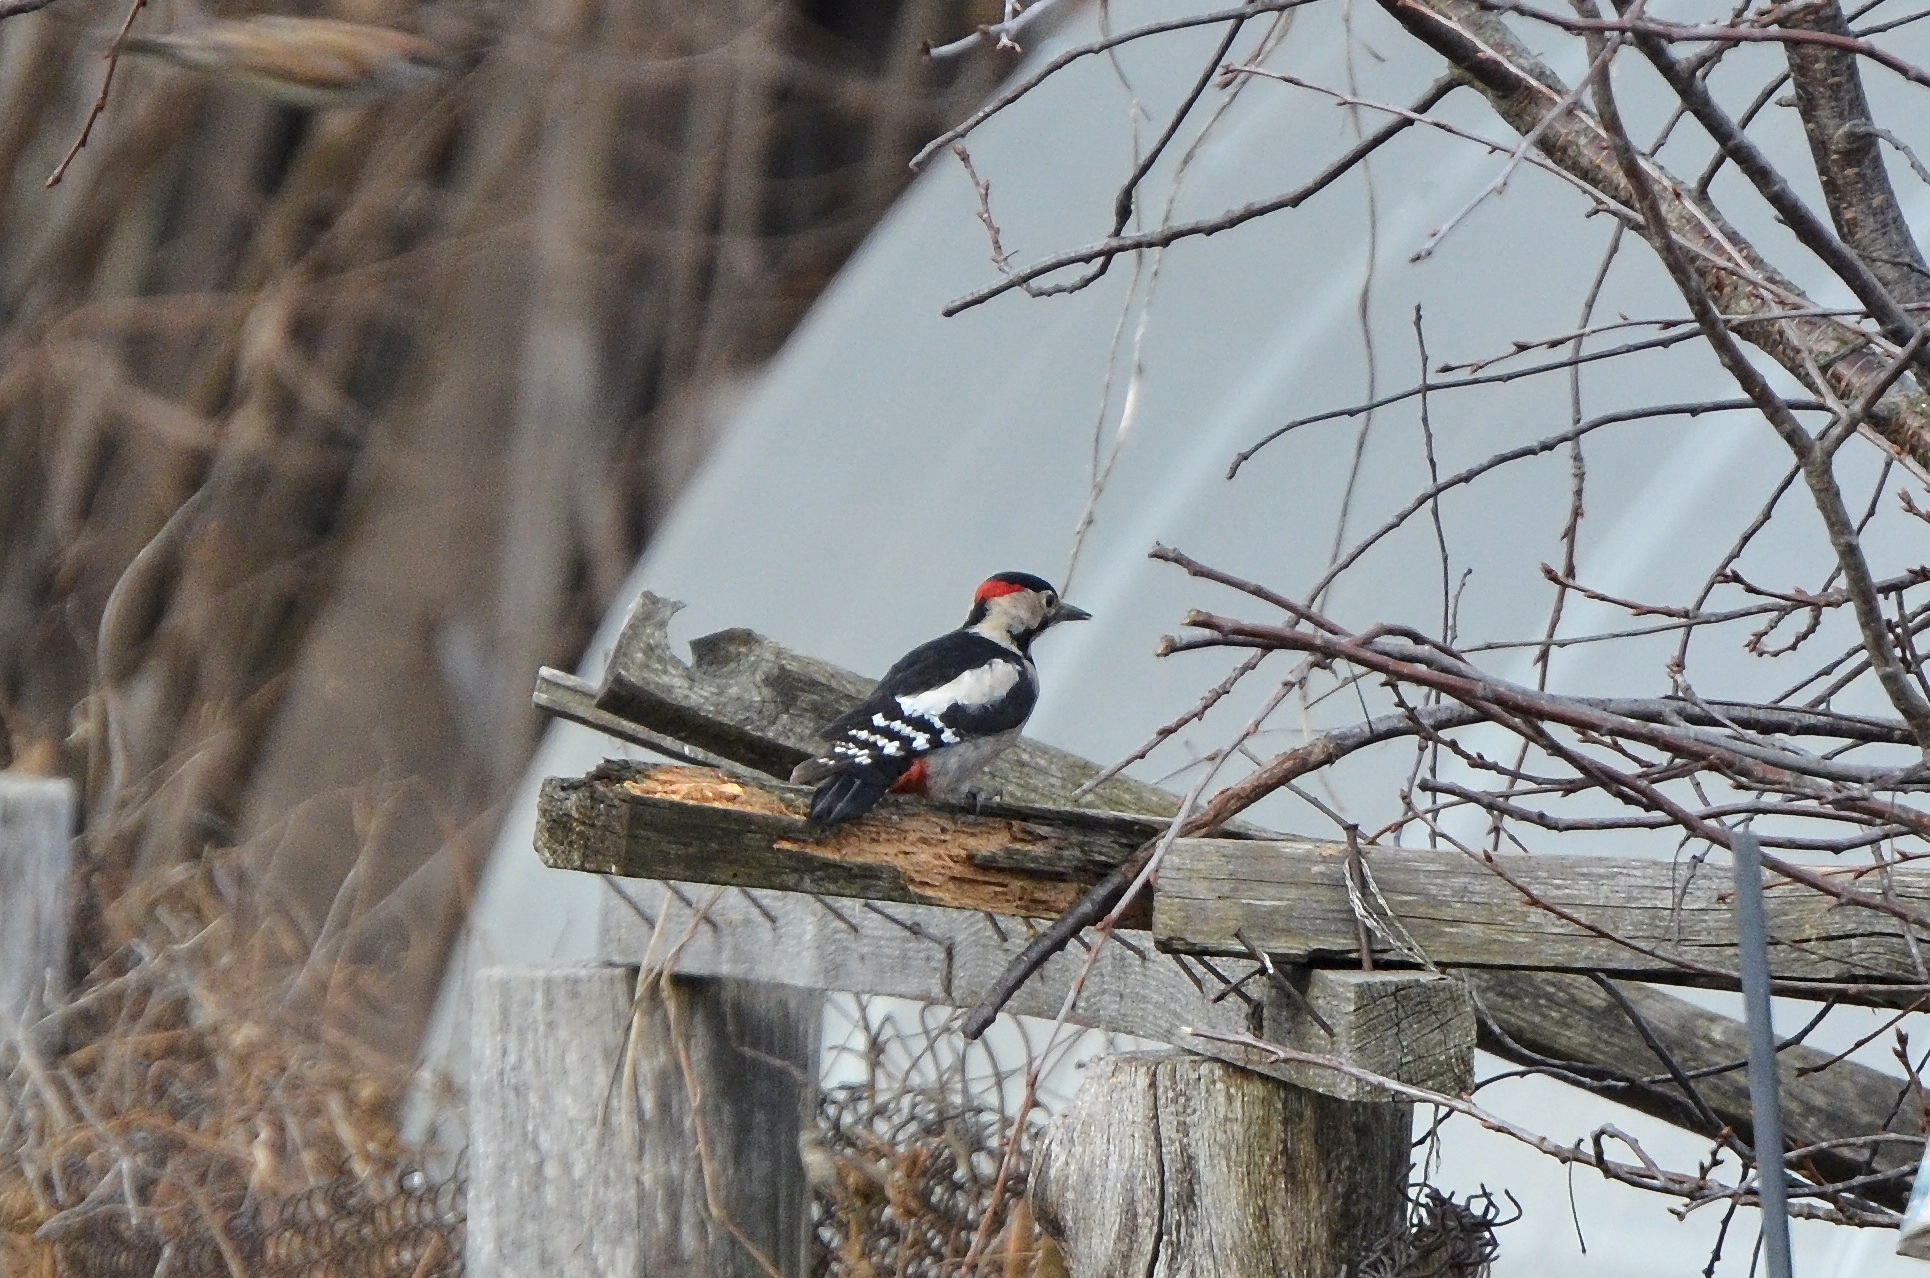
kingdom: Animalia
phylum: Chordata
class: Aves
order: Piciformes
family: Picidae
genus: Dendrocopos
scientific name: Dendrocopos syriacus
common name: Syrian woodpecker
